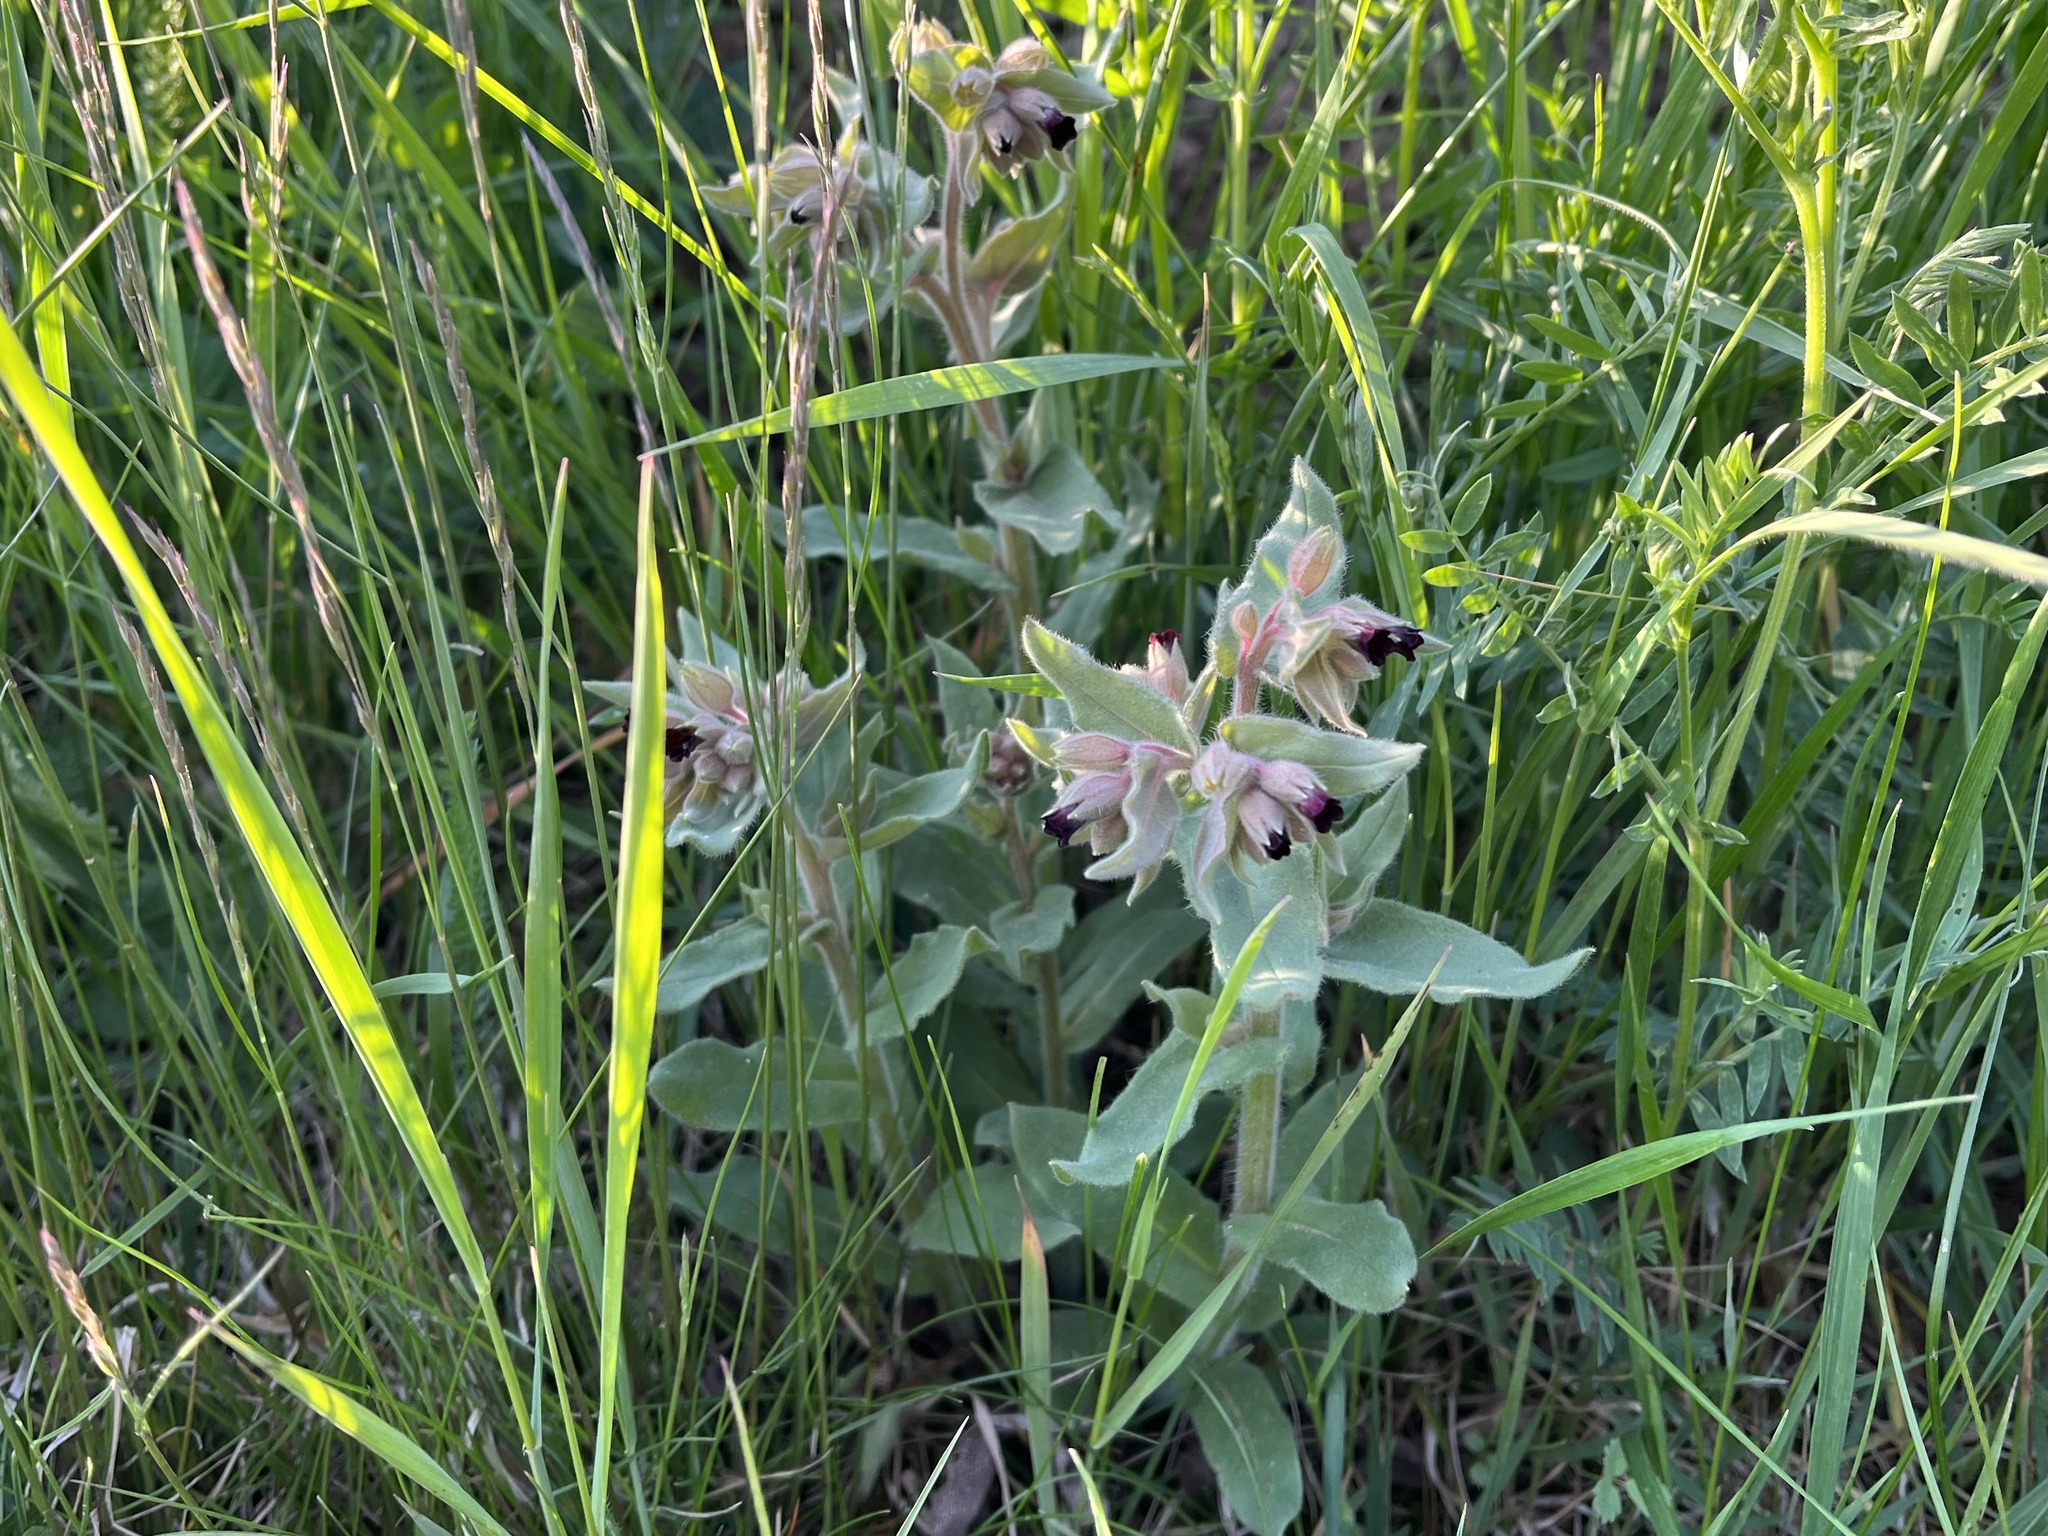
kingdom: Plantae
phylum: Tracheophyta
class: Magnoliopsida
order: Boraginales
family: Boraginaceae
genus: Nonea
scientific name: Nonea pulla
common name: Brown nonea
